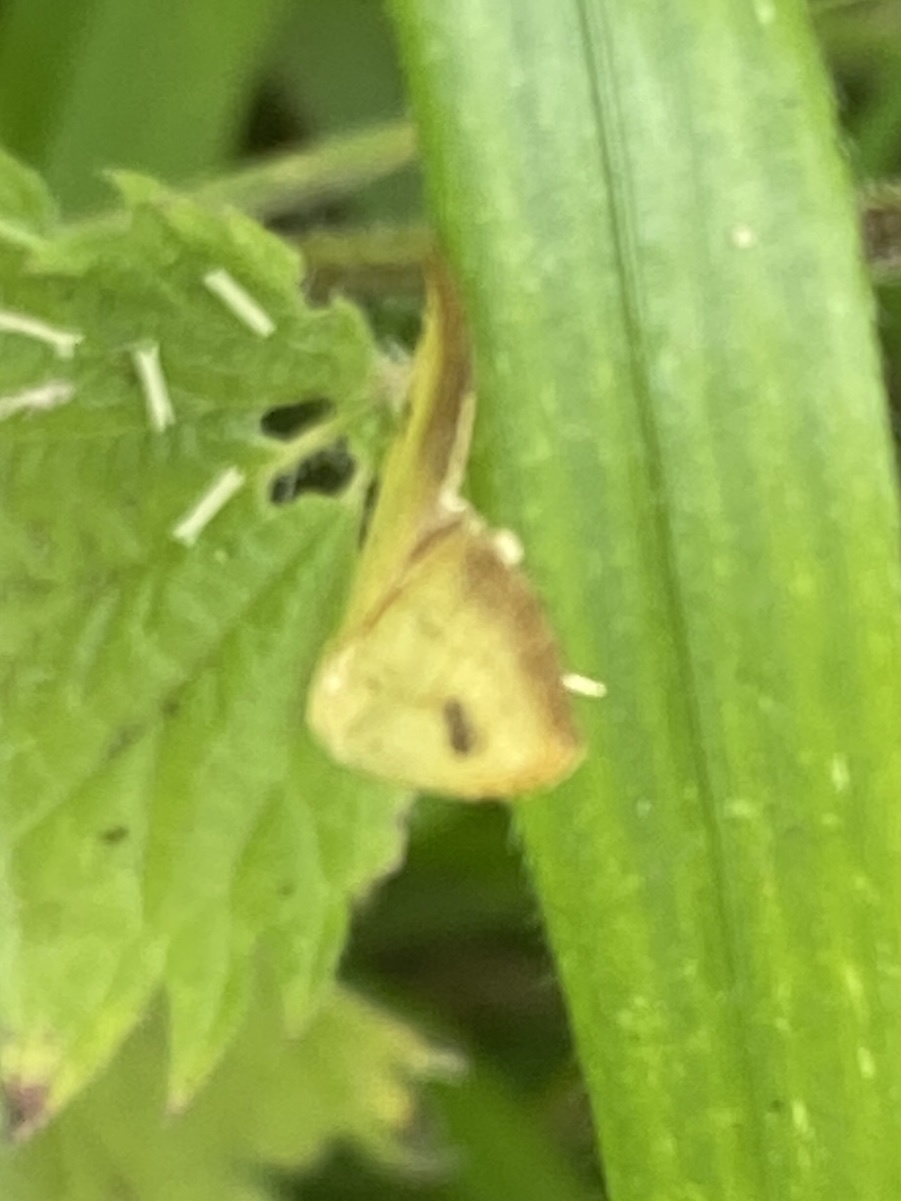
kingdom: Animalia
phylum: Arthropoda
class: Insecta
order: Lepidoptera
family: Erebidae
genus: Rivula
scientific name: Rivula sericealis
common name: Straw dot
